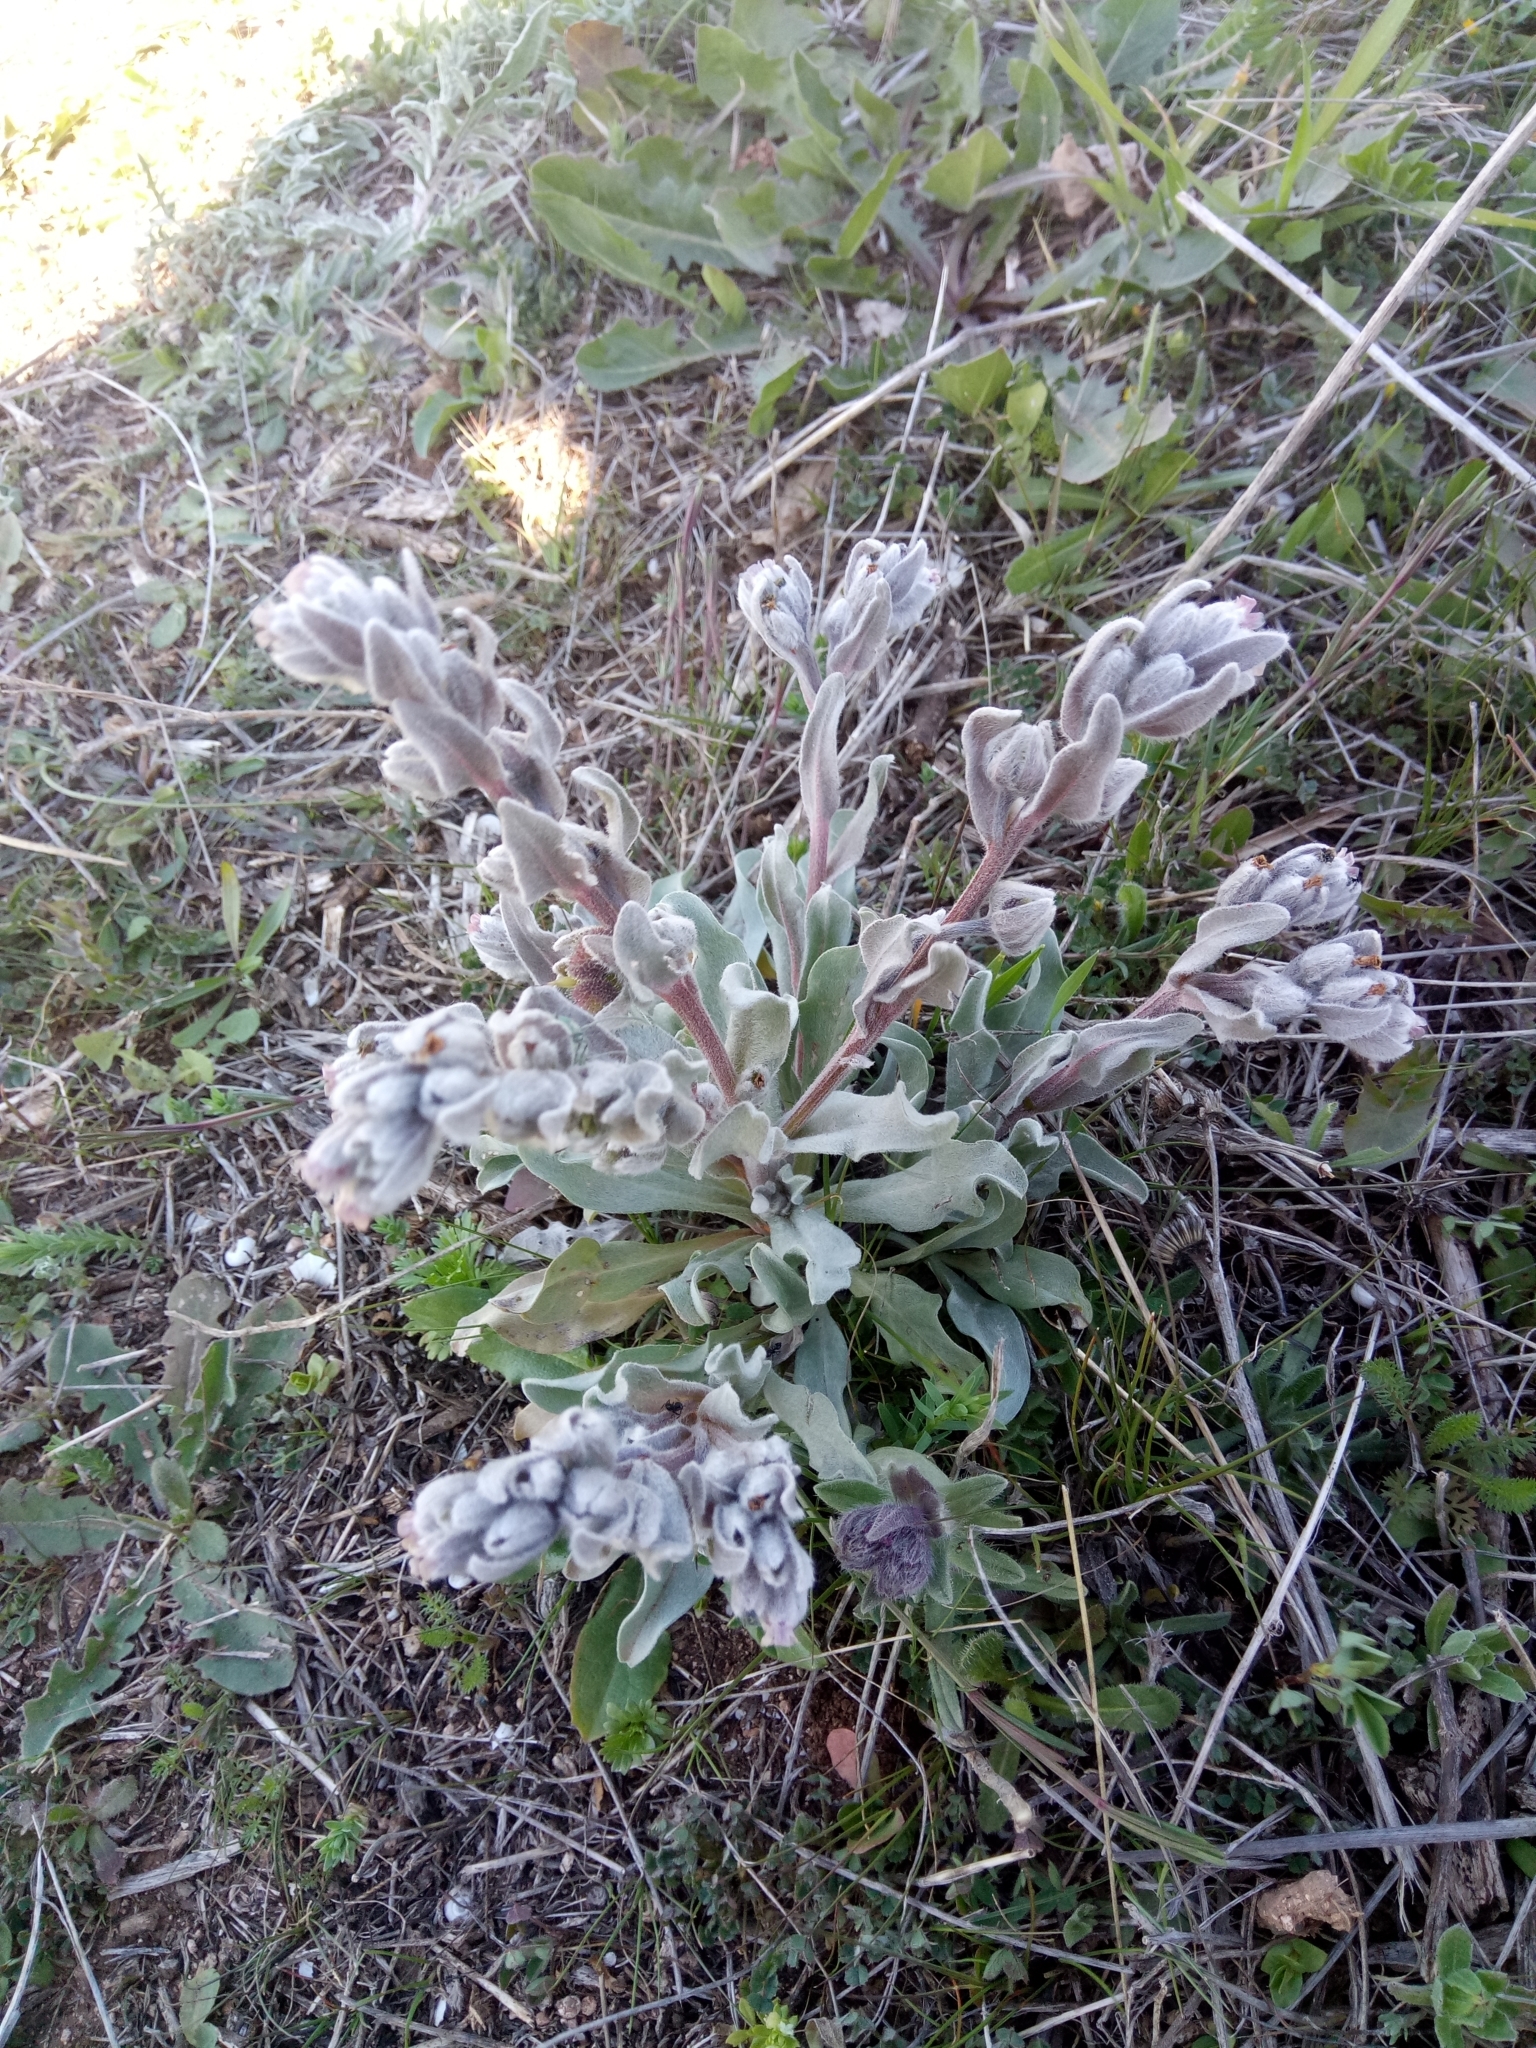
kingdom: Plantae
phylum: Tracheophyta
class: Magnoliopsida
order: Boraginales
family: Boraginaceae
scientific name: Boraginaceae
